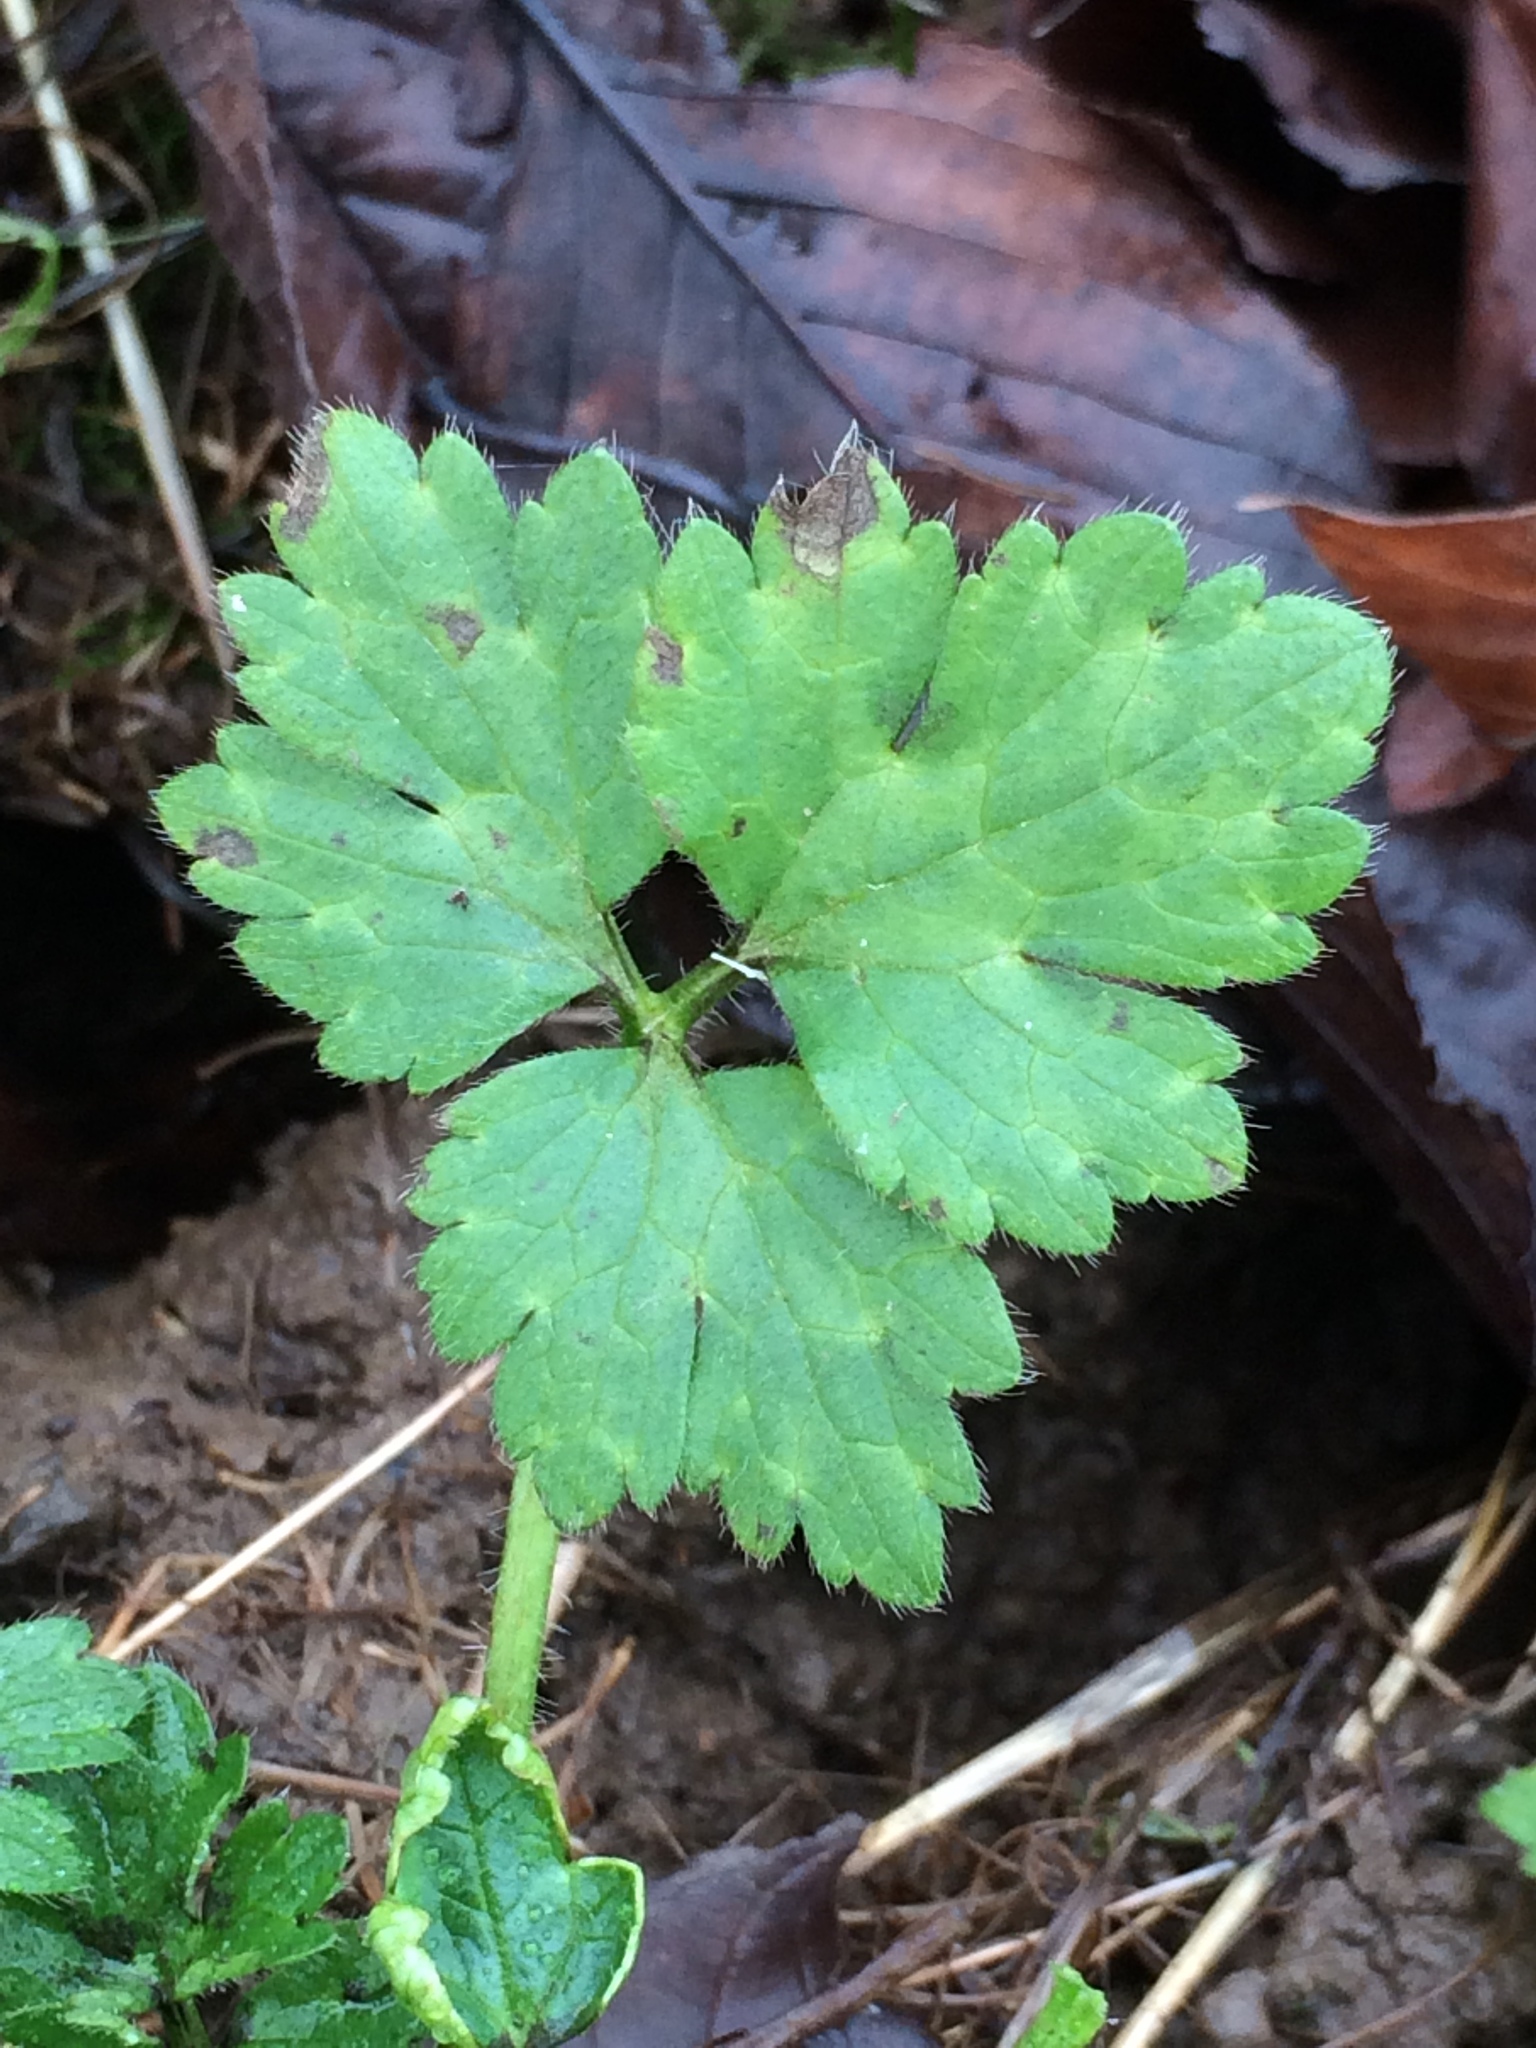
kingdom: Plantae
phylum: Tracheophyta
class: Magnoliopsida
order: Ranunculales
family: Ranunculaceae
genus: Ranunculus
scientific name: Ranunculus repens
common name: Creeping buttercup
